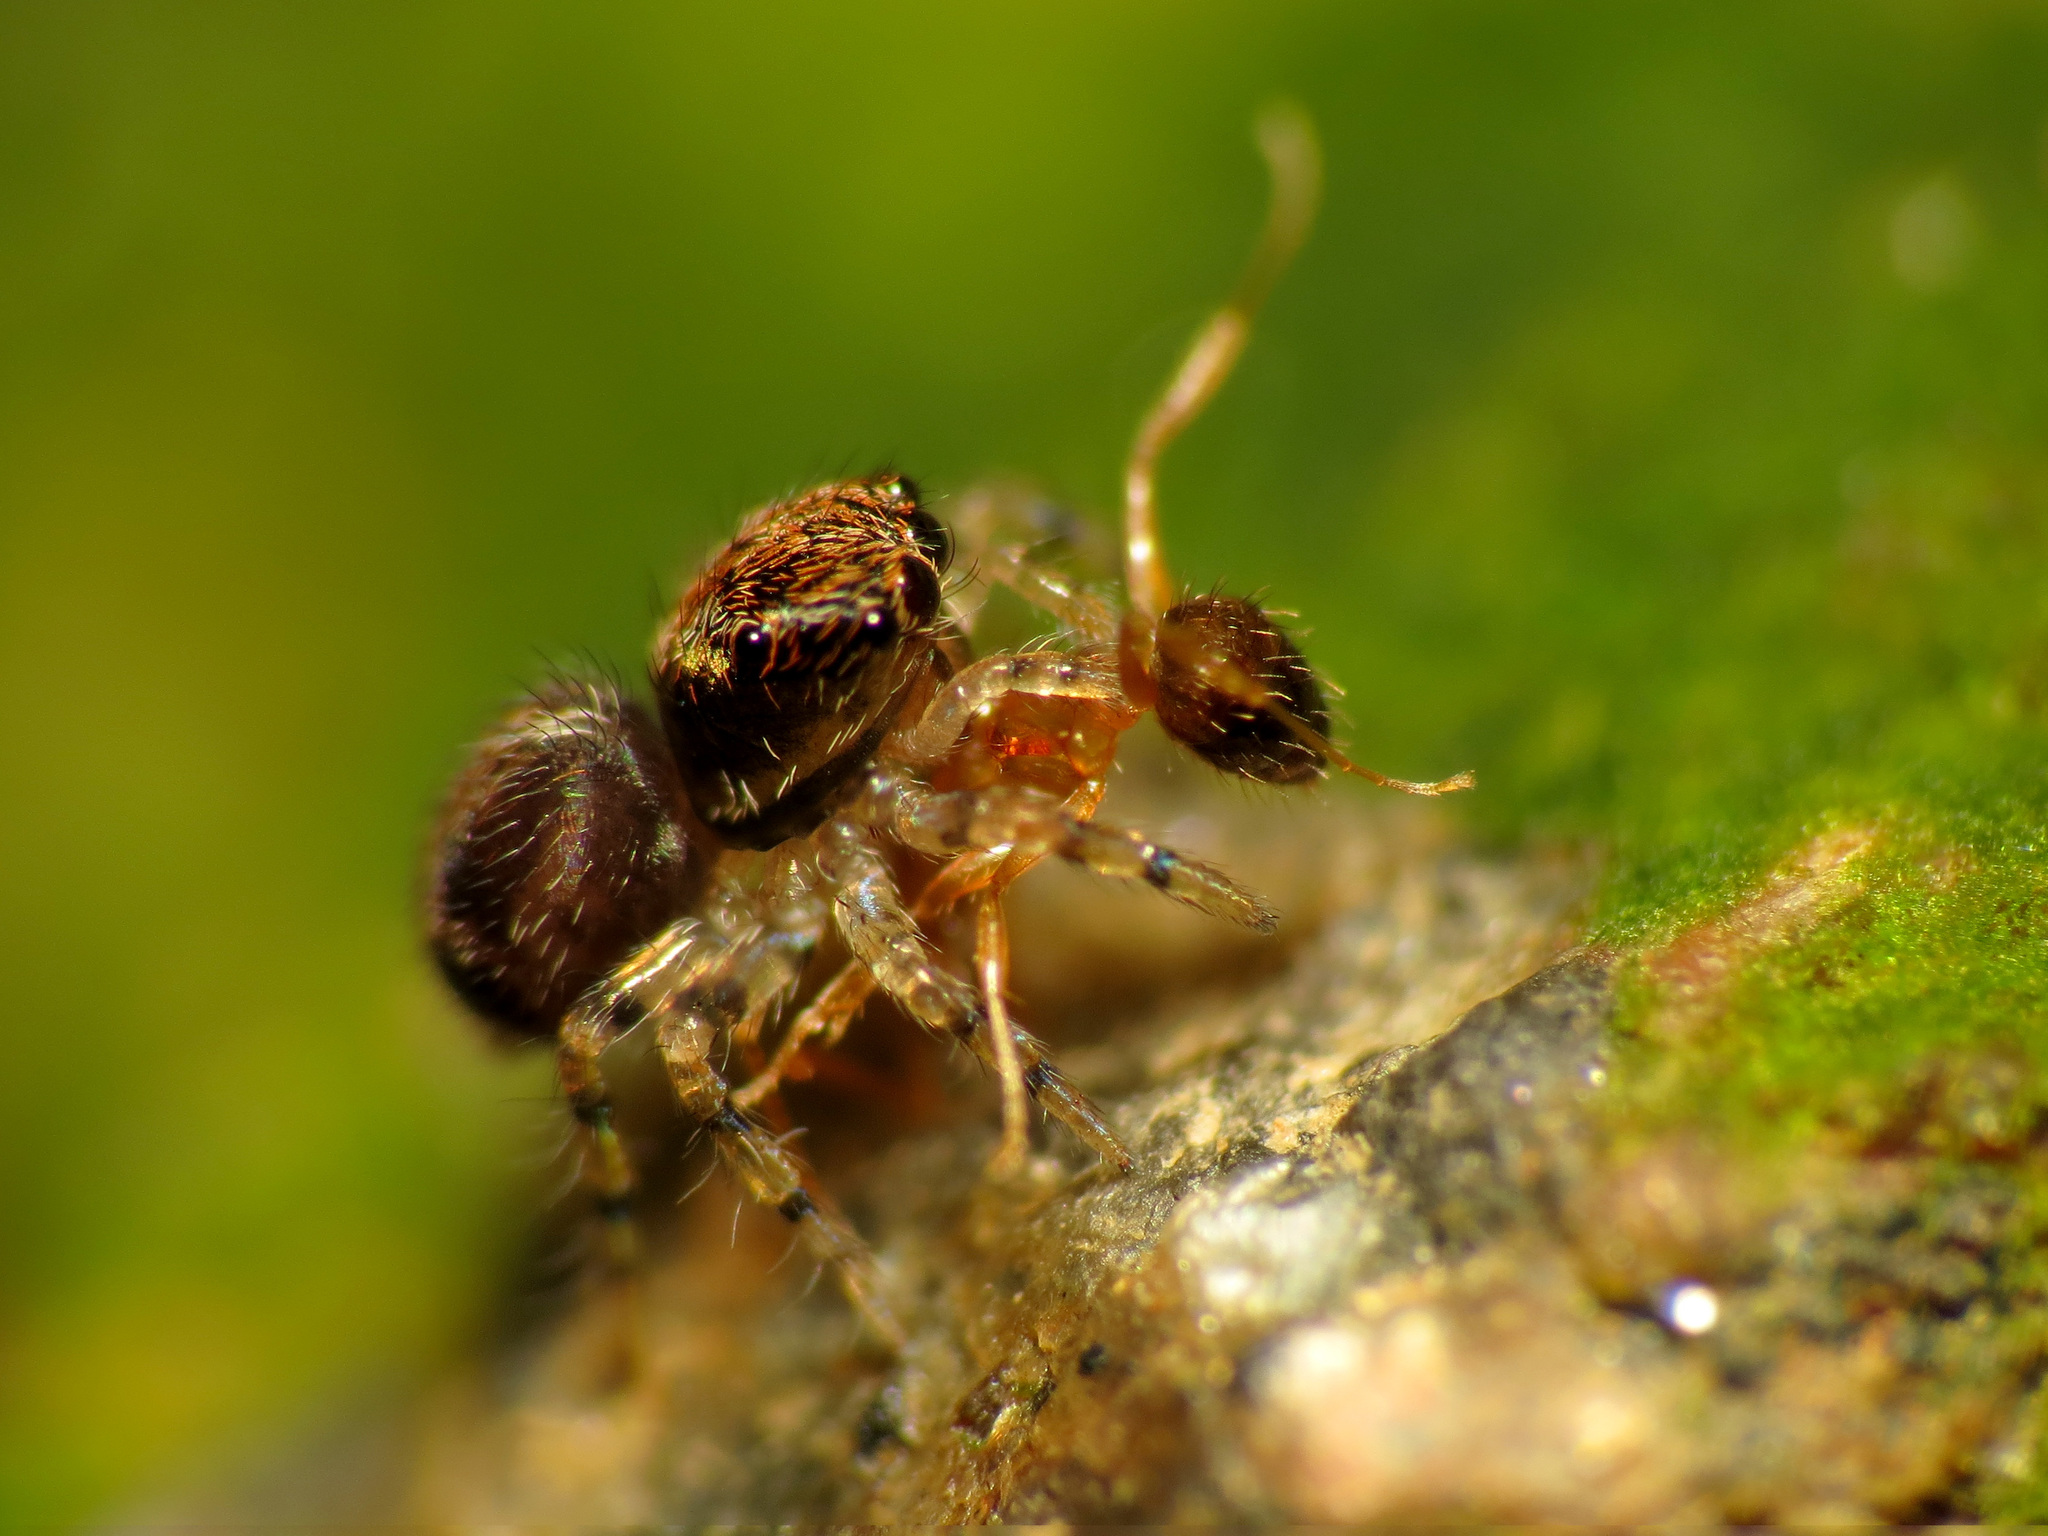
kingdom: Animalia
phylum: Arthropoda
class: Arachnida
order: Araneae
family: Salticidae
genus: Naphrys
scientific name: Naphrys pulex
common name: Flea jumping spider
